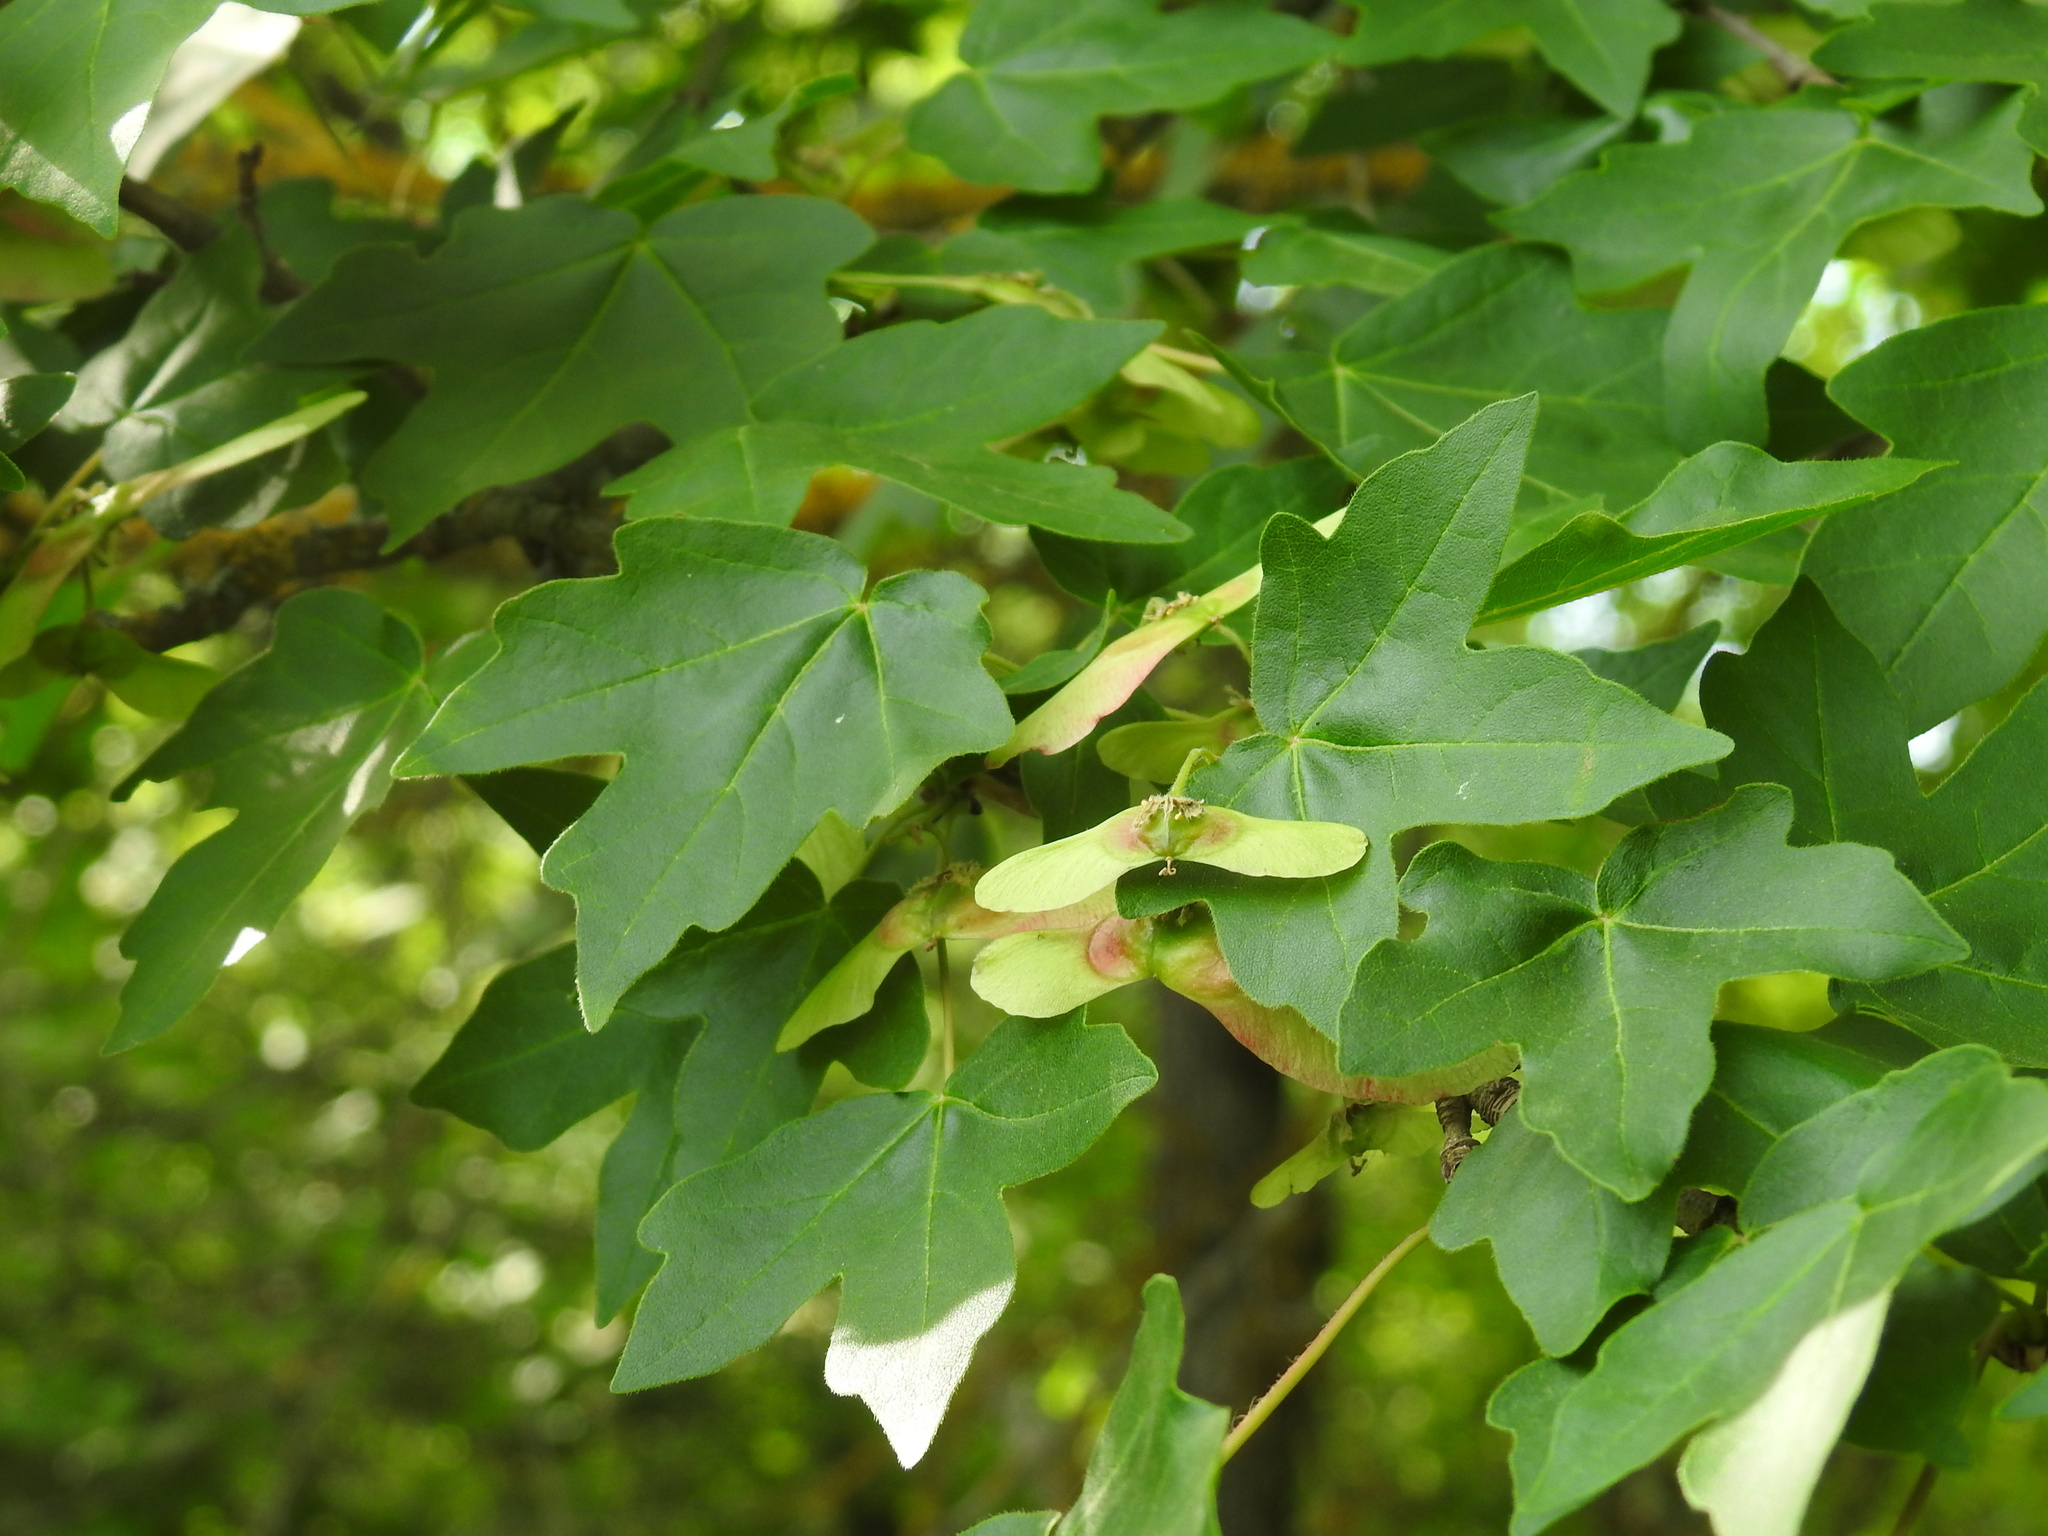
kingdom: Plantae
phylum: Tracheophyta
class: Magnoliopsida
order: Sapindales
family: Sapindaceae
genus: Acer
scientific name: Acer campestre
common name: Field maple
